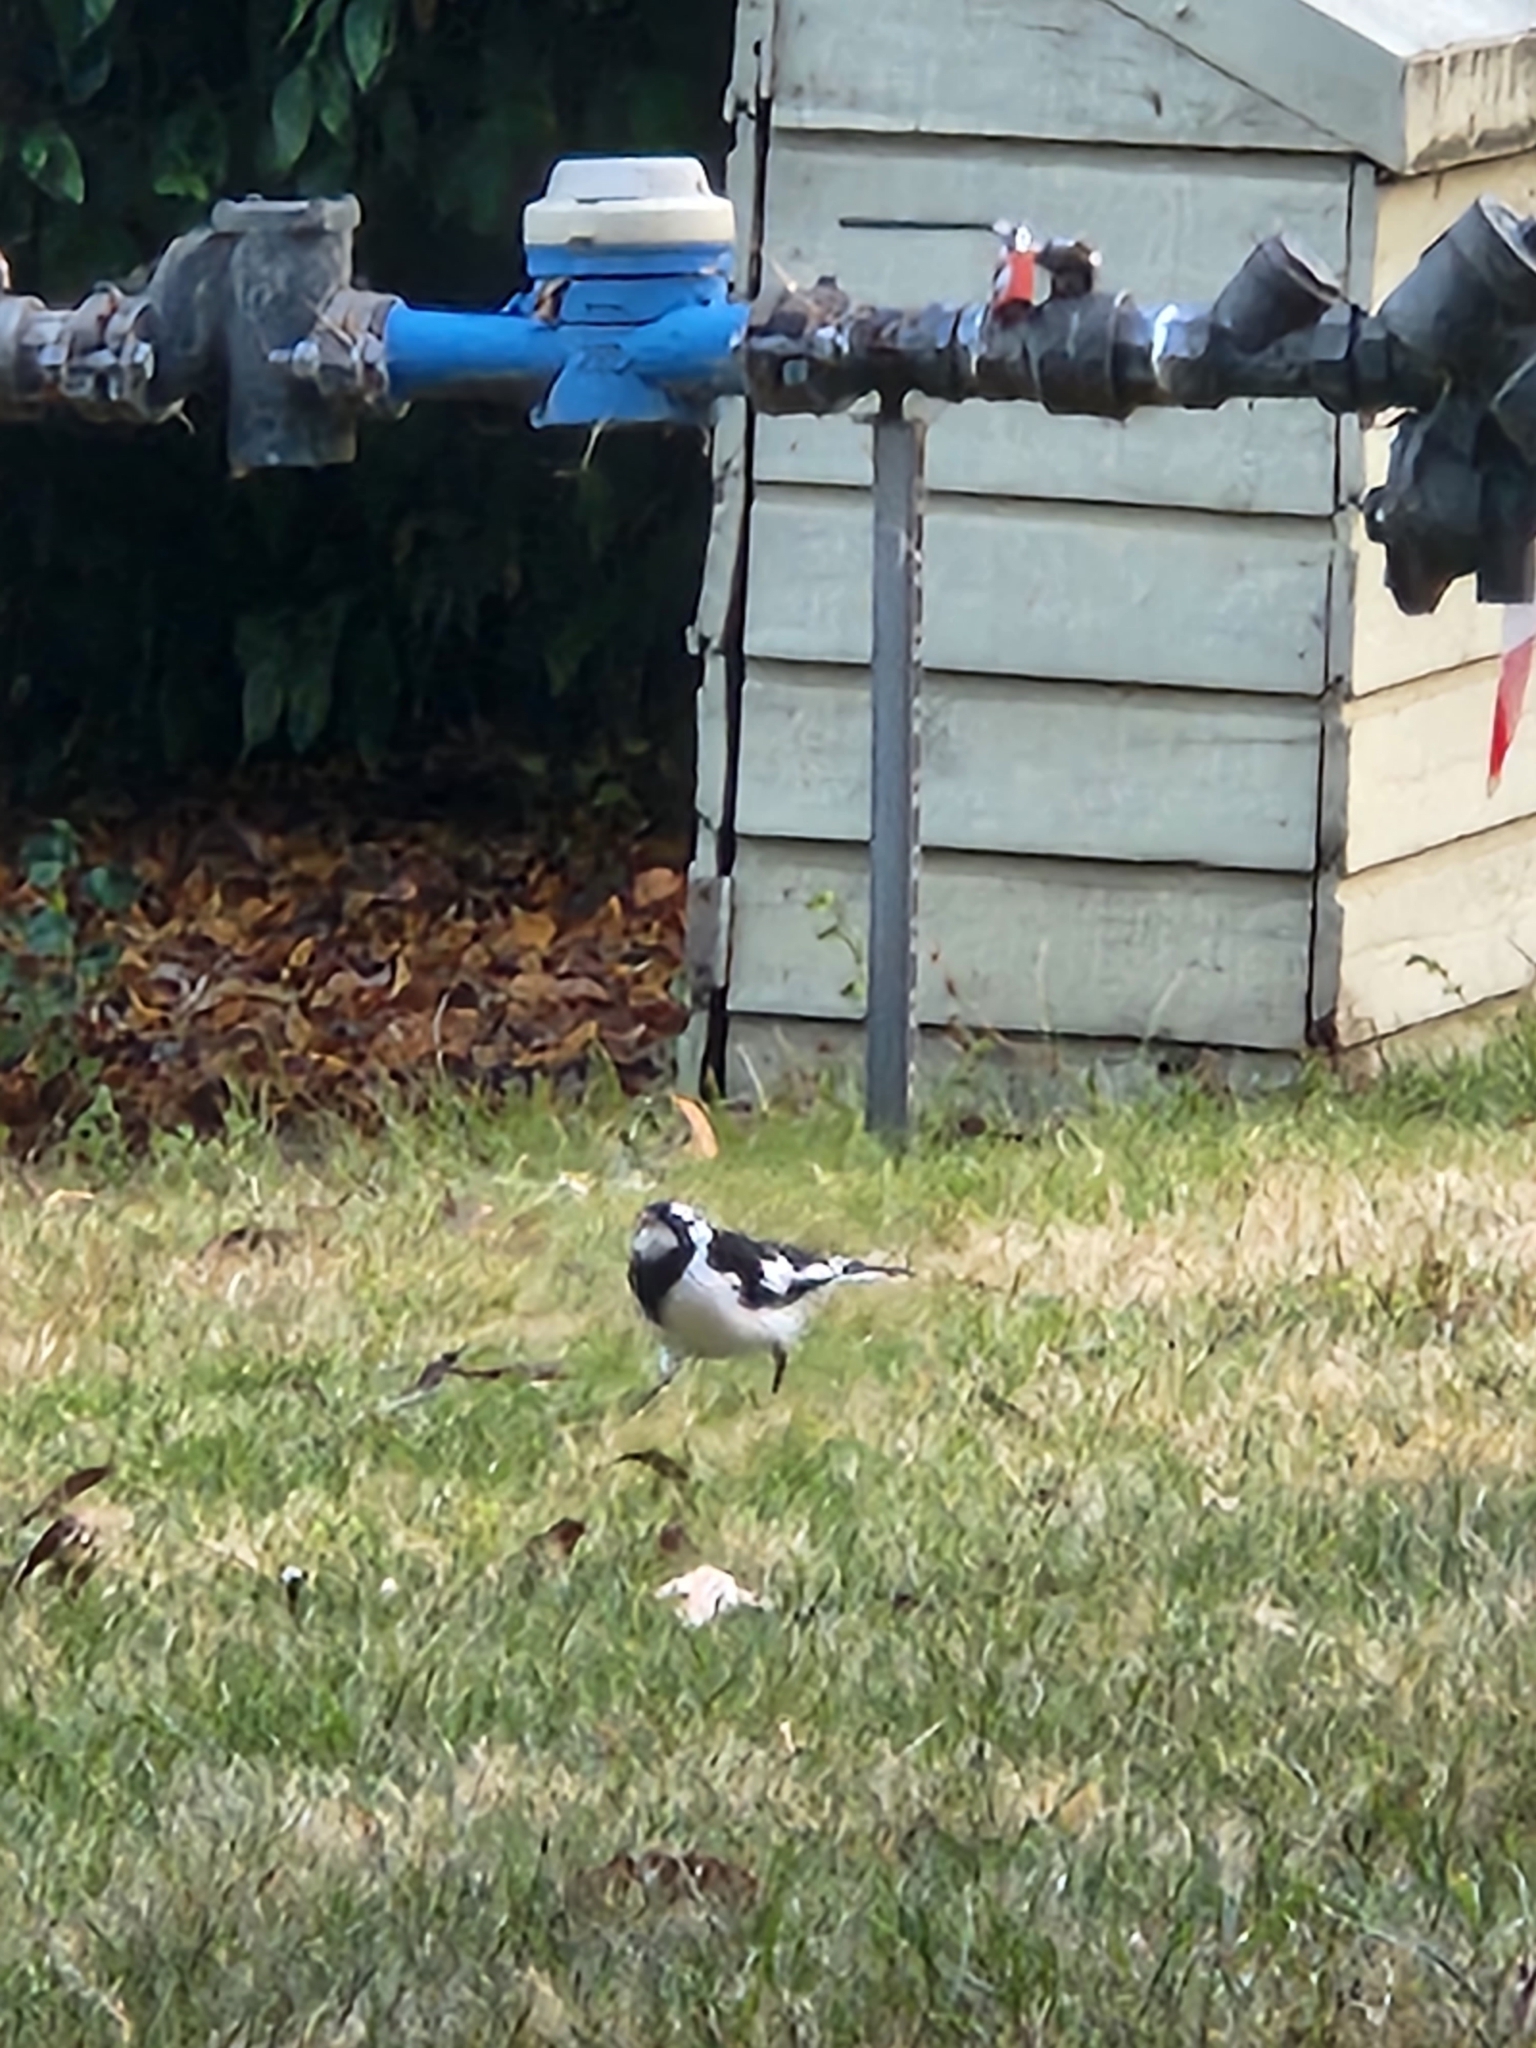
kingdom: Animalia
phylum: Chordata
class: Aves
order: Passeriformes
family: Monarchidae
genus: Grallina
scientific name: Grallina cyanoleuca
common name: Magpie-lark
